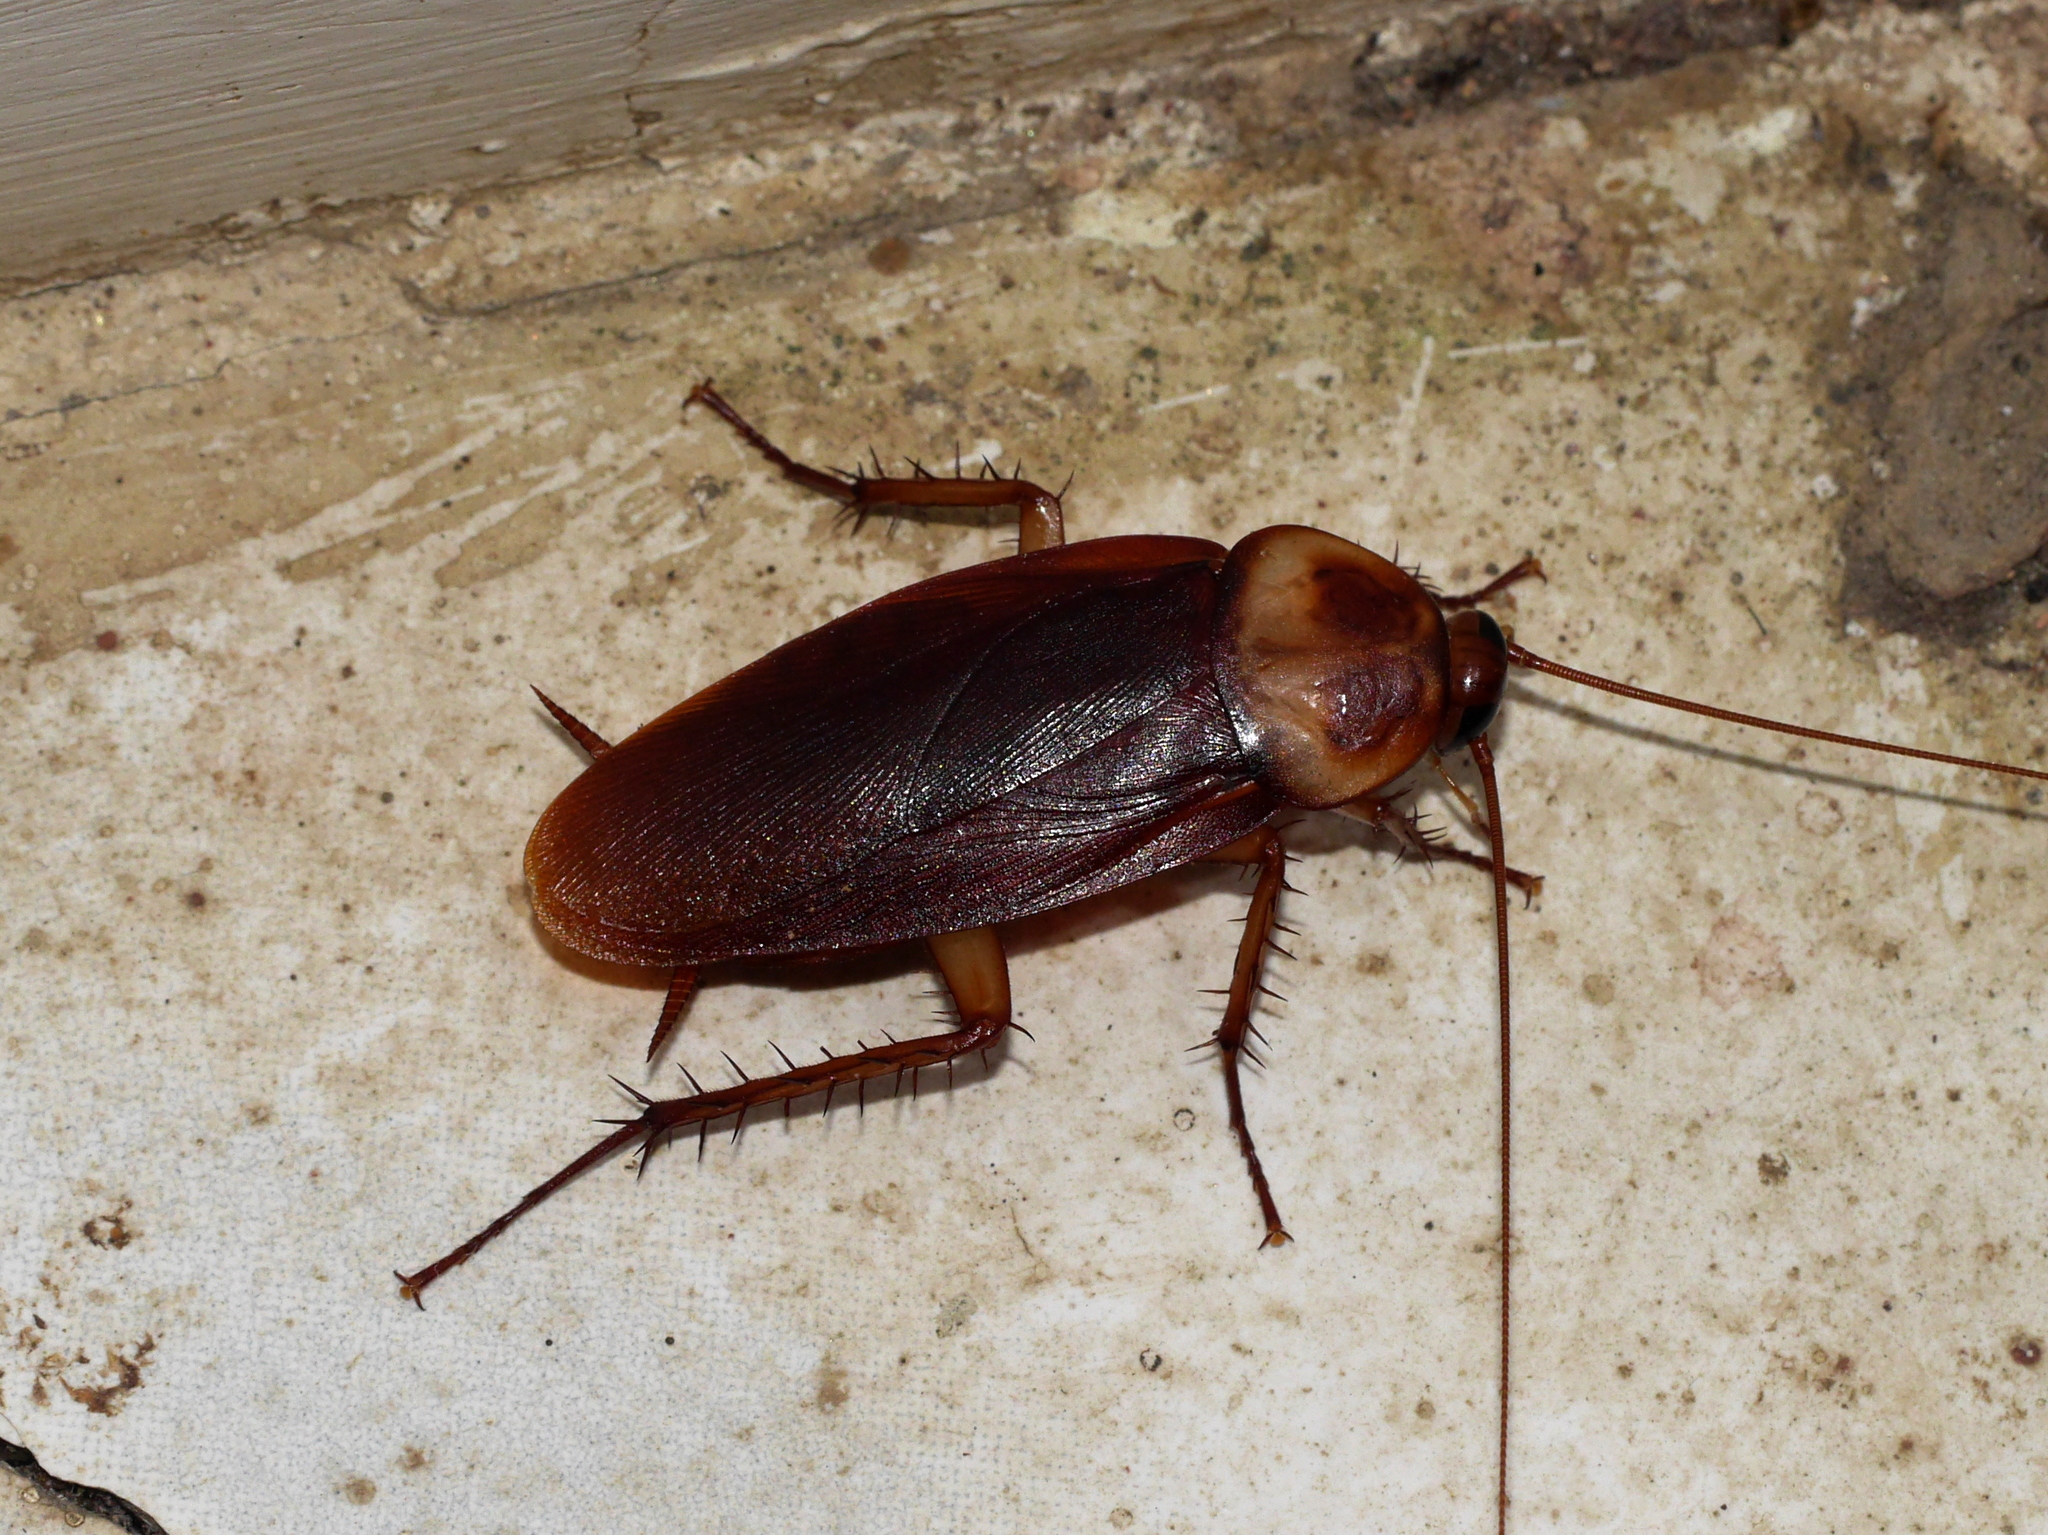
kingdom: Animalia
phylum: Arthropoda
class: Insecta
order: Blattodea
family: Blattidae
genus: Periplaneta
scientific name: Periplaneta americana
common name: American cockroach
